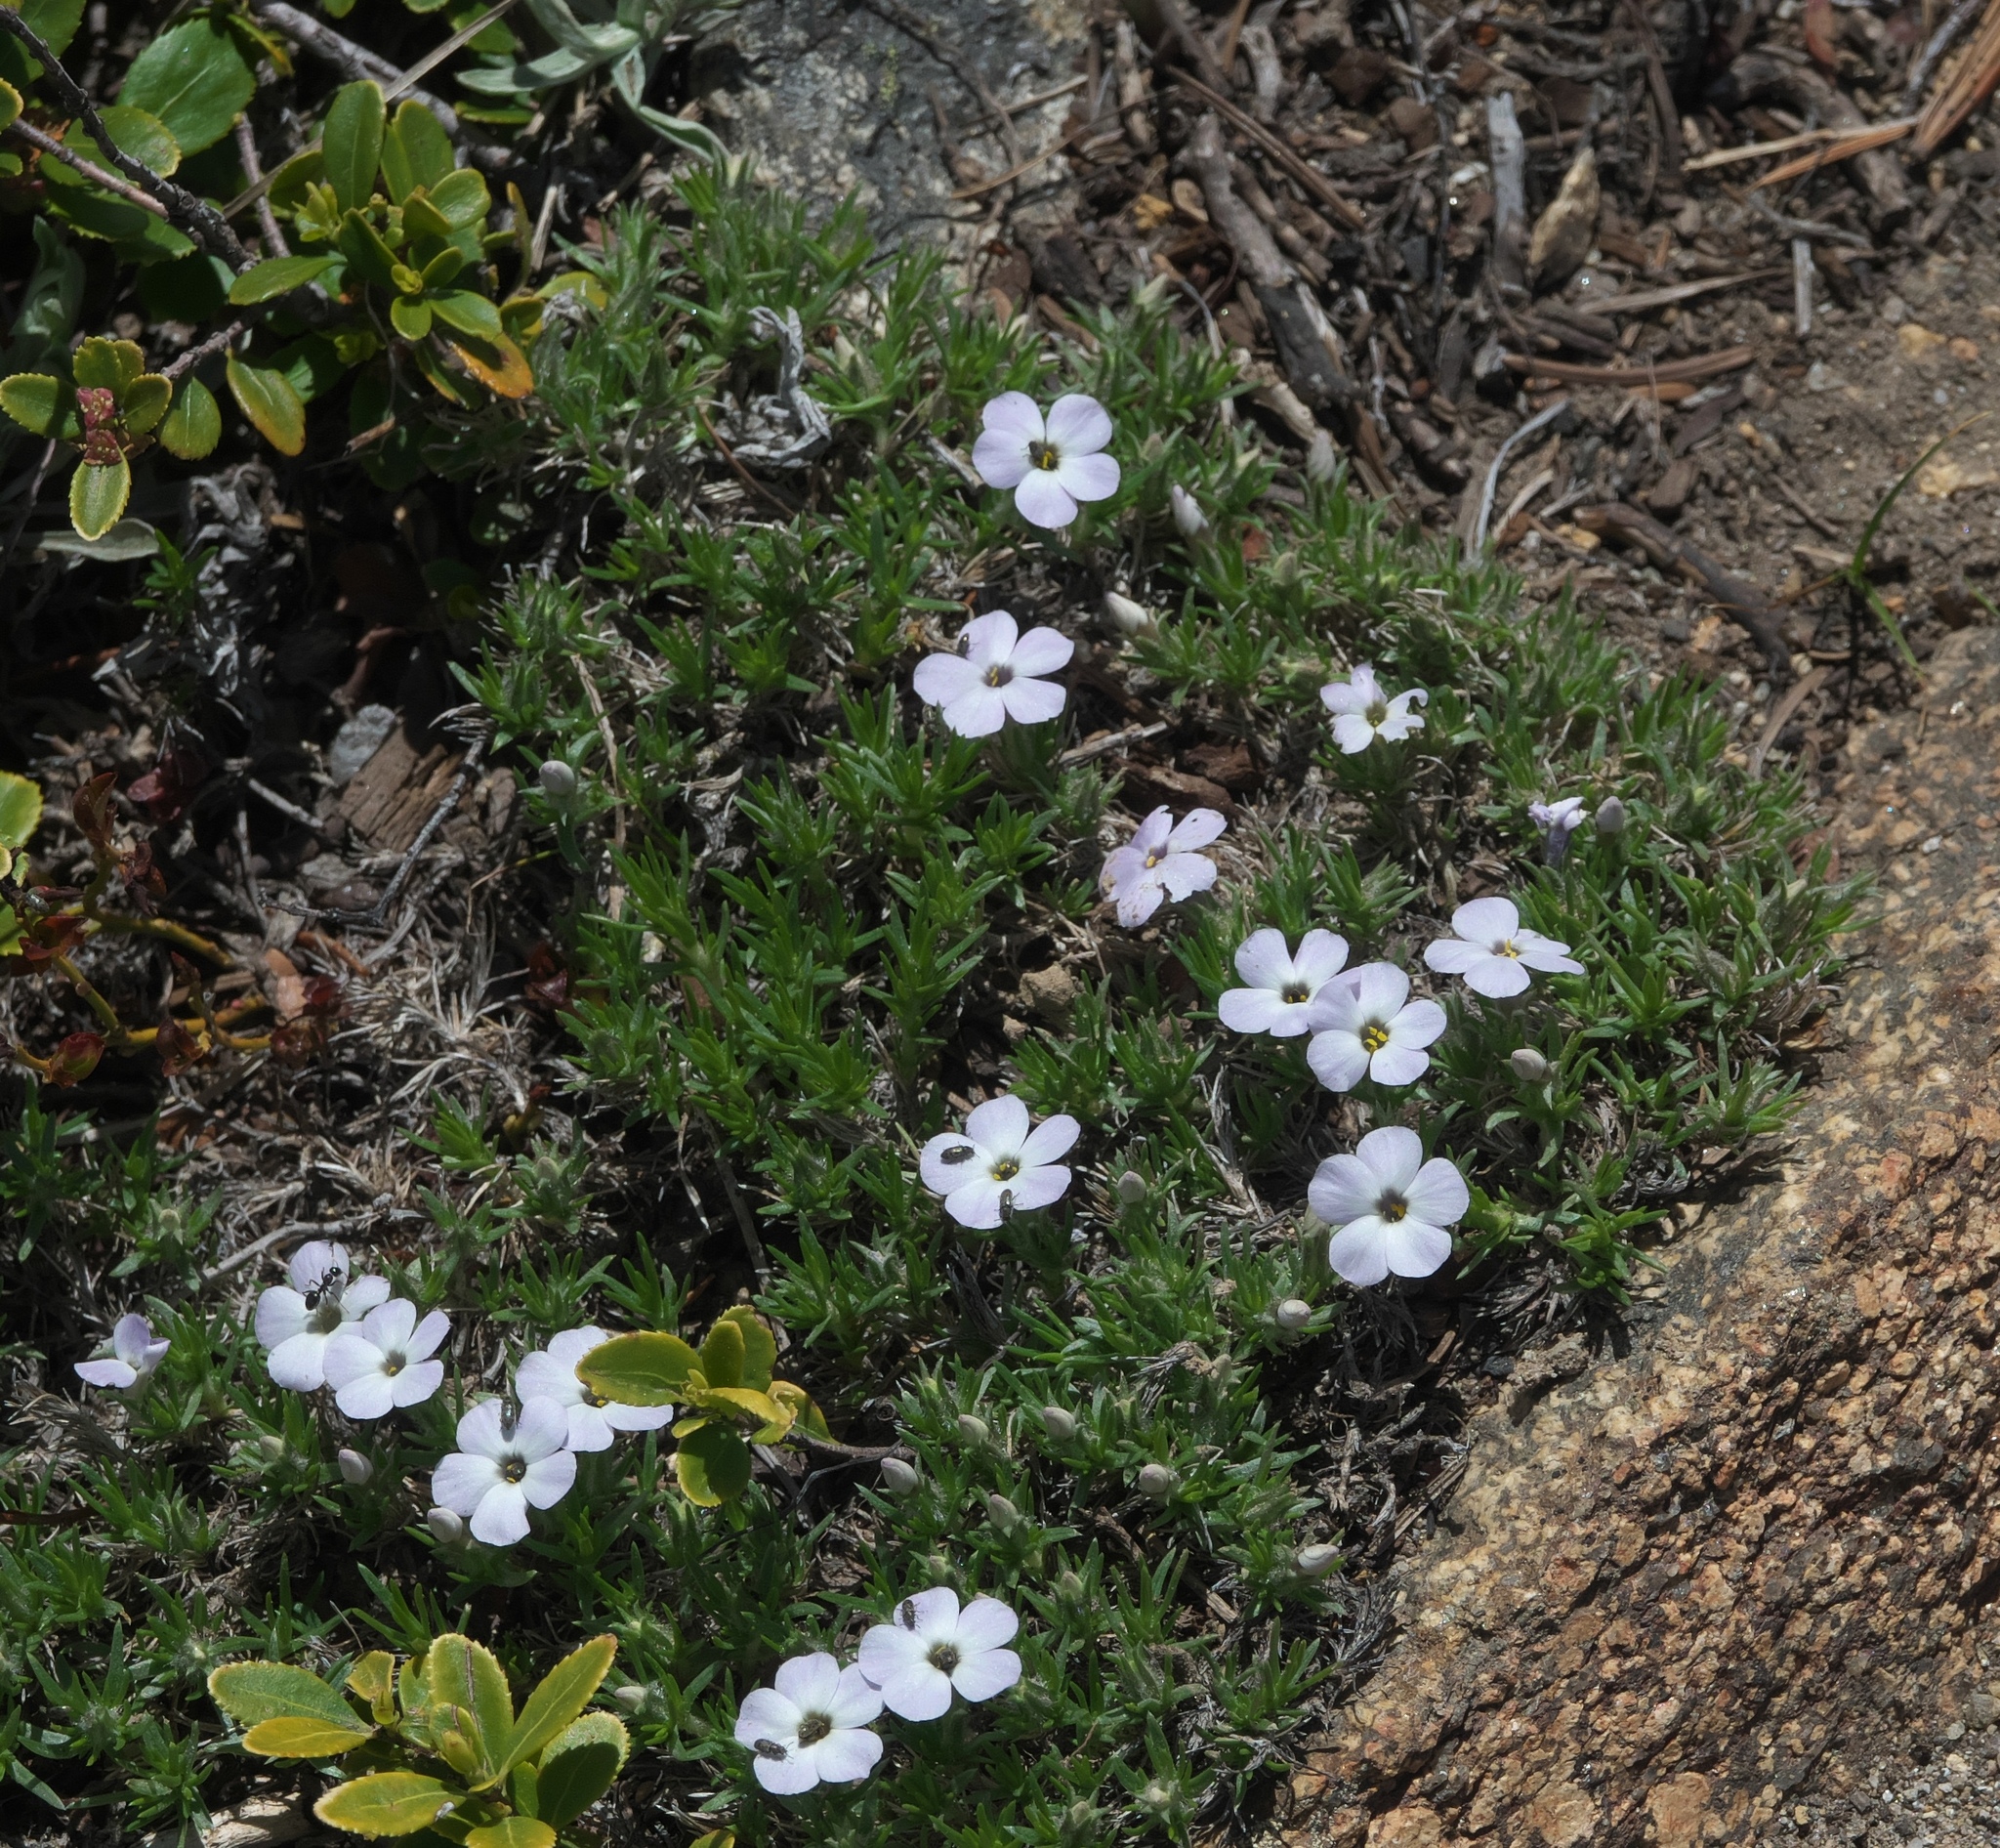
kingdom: Plantae
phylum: Tracheophyta
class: Magnoliopsida
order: Ericales
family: Polemoniaceae
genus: Phlox
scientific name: Phlox diffusa
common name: Mat phlox
